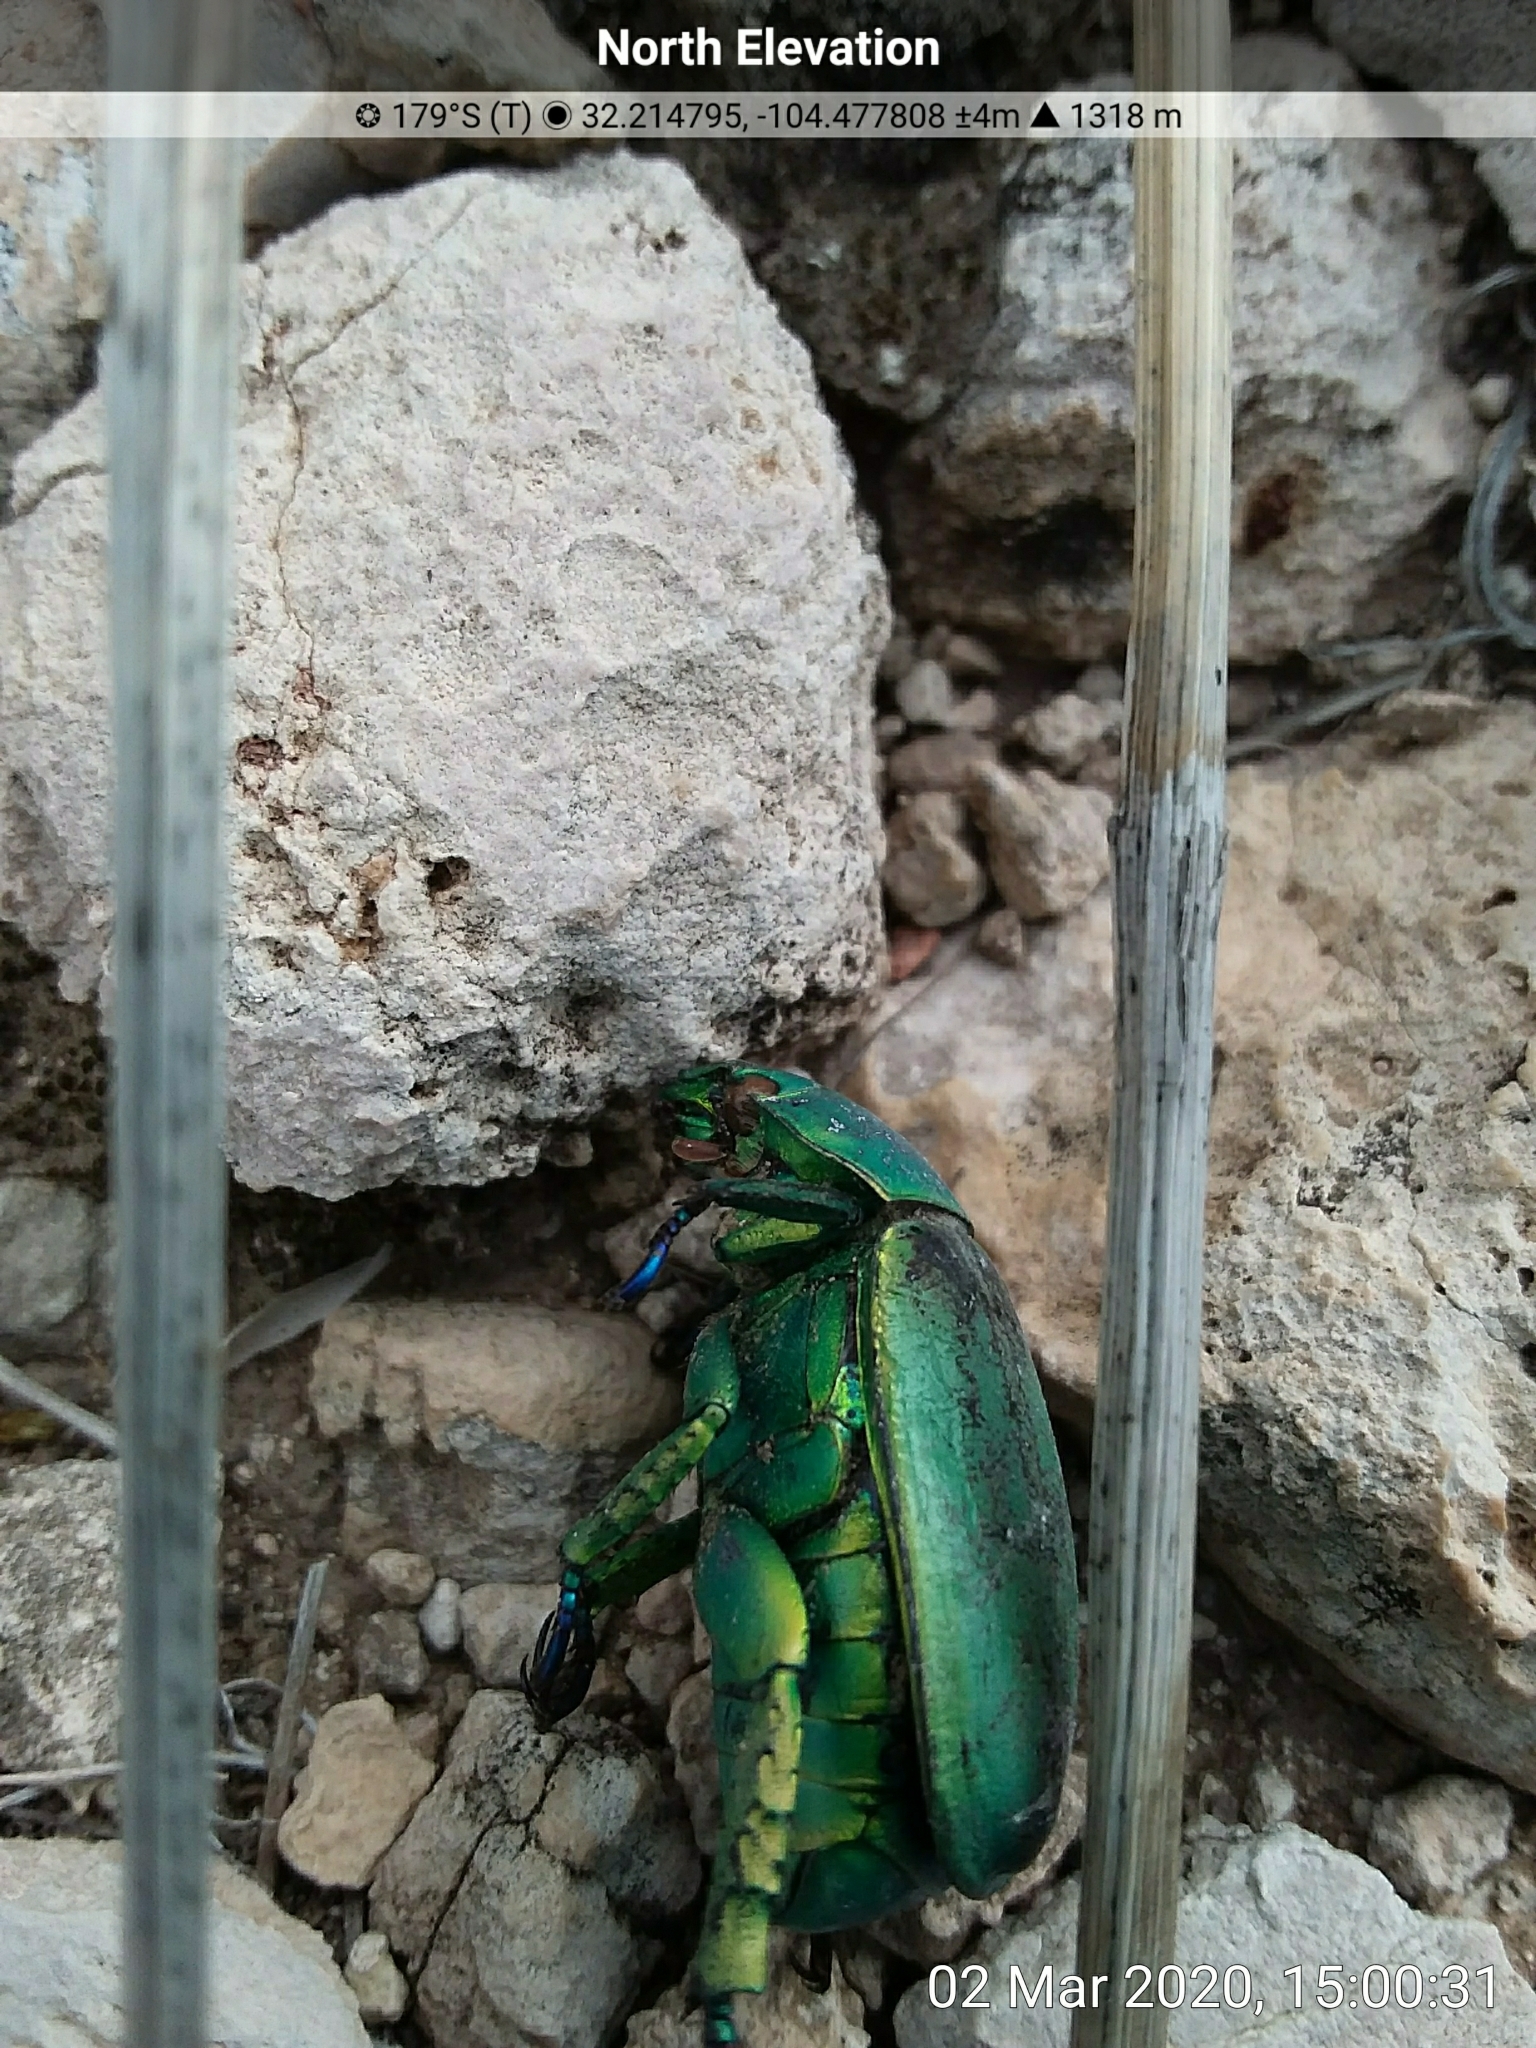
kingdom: Animalia
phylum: Arthropoda
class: Insecta
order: Coleoptera
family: Scarabaeidae
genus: Chrysina
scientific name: Chrysina woodi
